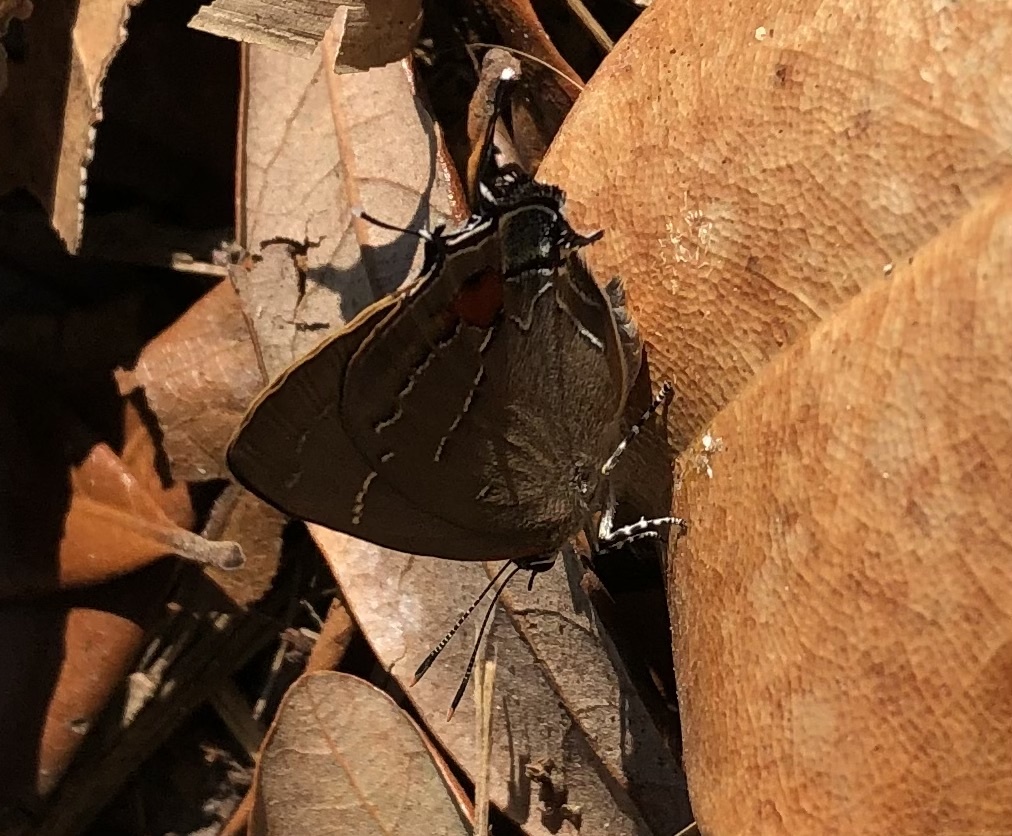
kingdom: Animalia
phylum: Arthropoda
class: Insecta
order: Lepidoptera
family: Lycaenidae
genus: Parrhasius
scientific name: Parrhasius m-album
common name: White m hairstreak
